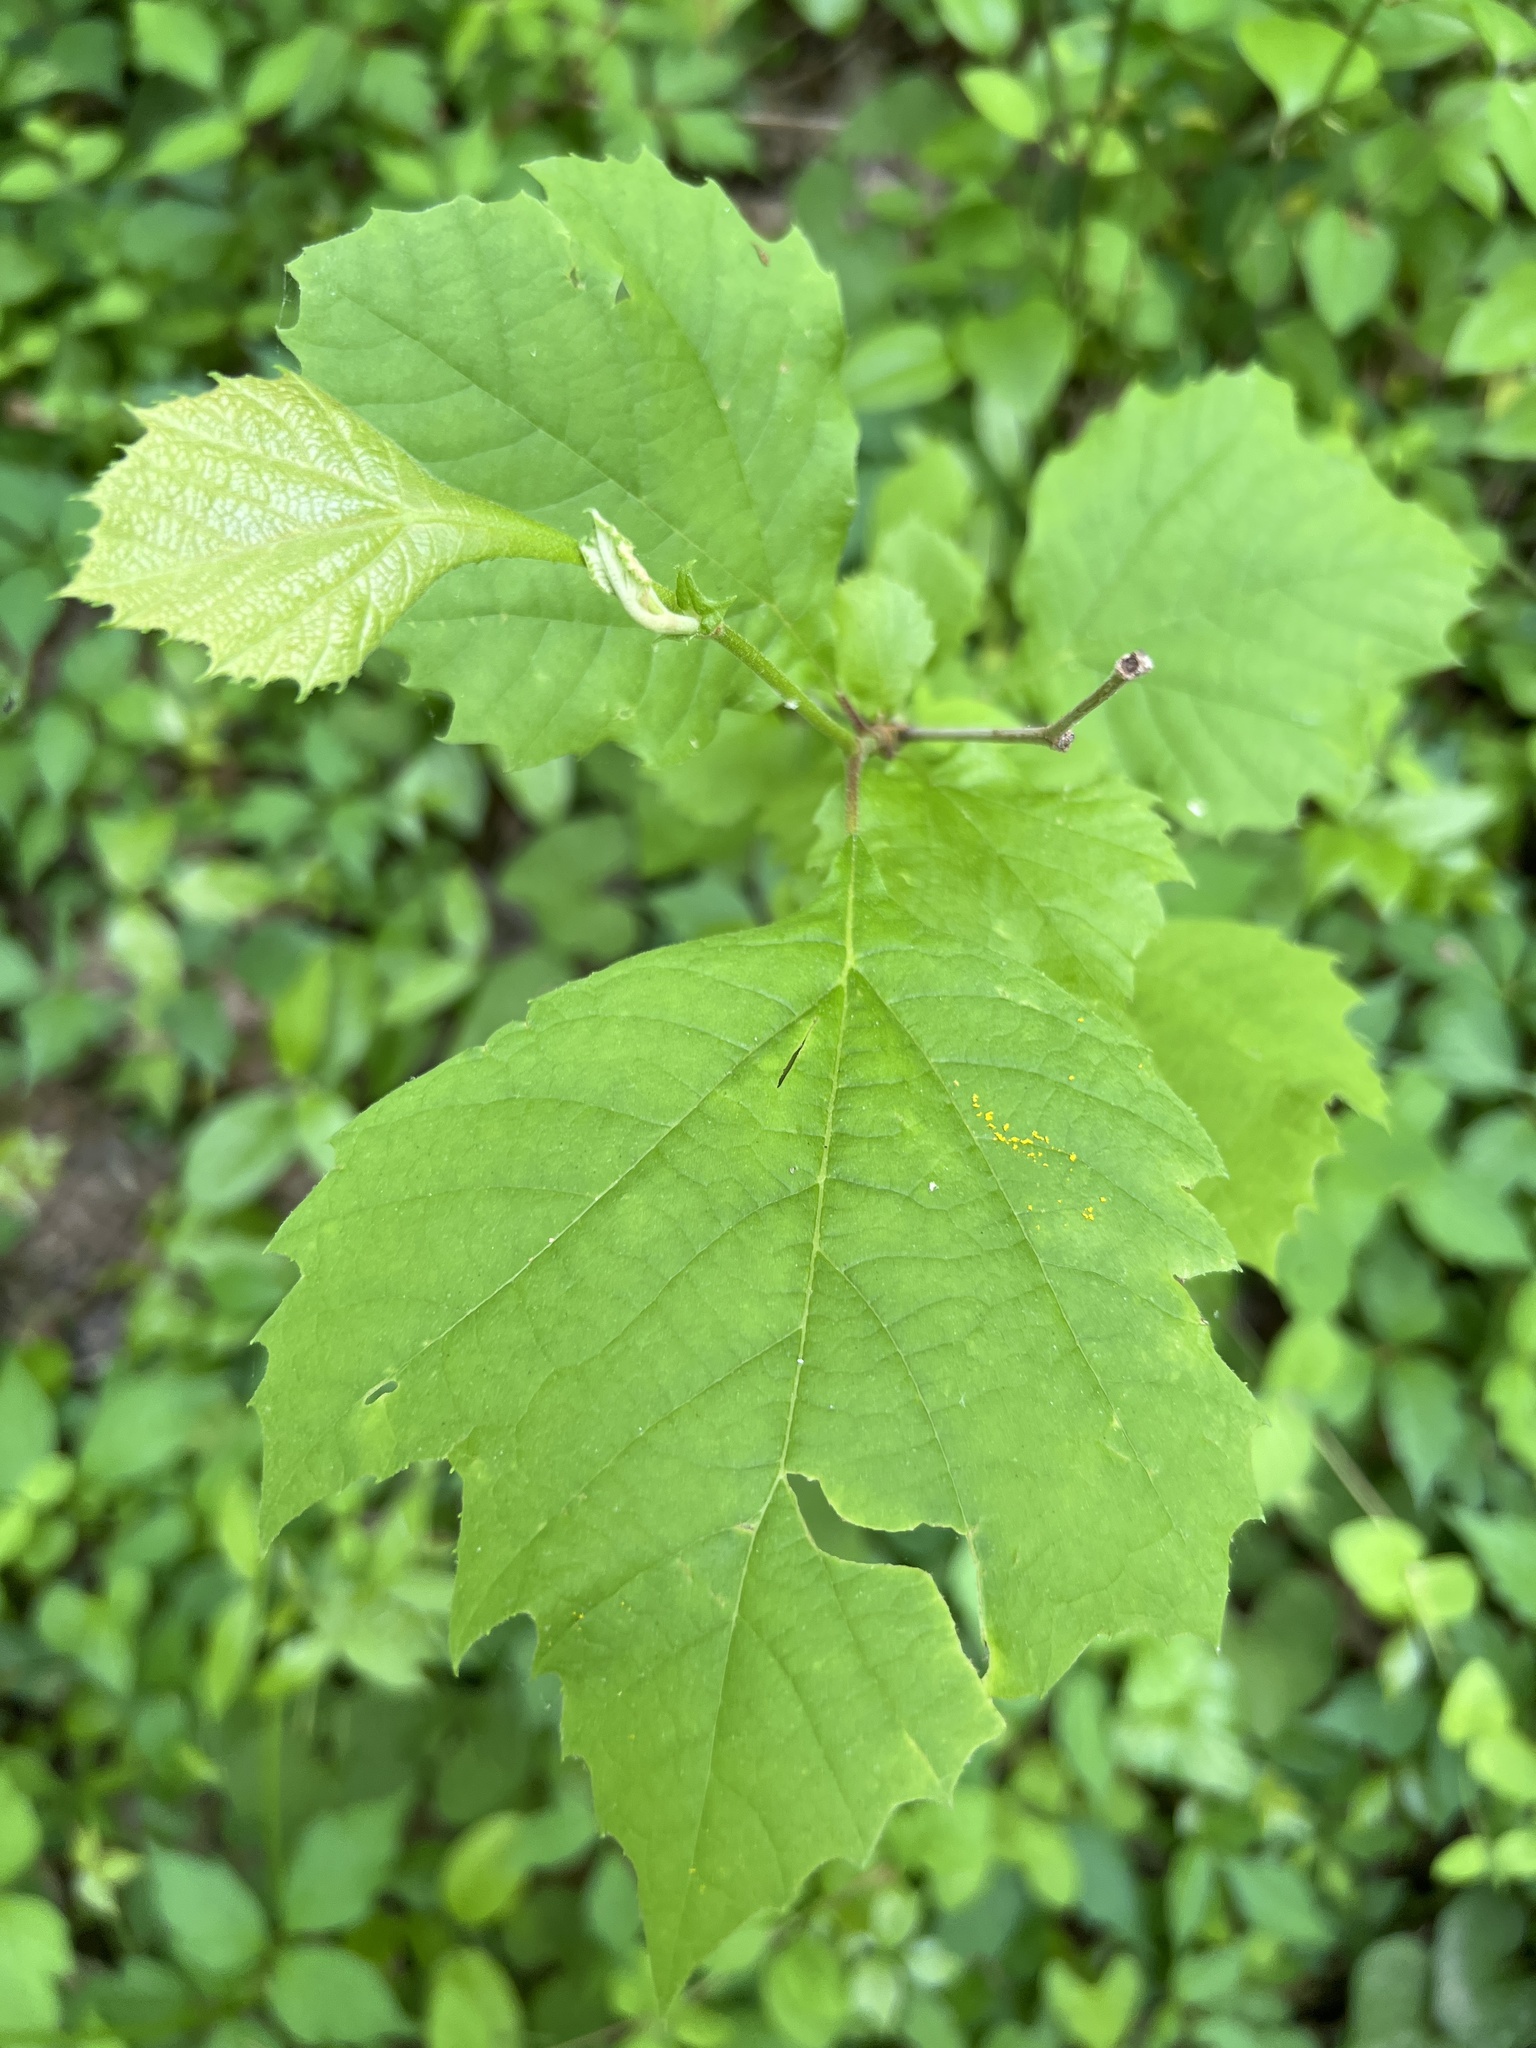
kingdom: Plantae
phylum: Tracheophyta
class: Magnoliopsida
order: Proteales
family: Platanaceae
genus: Platanus
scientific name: Platanus occidentalis
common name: American sycamore
